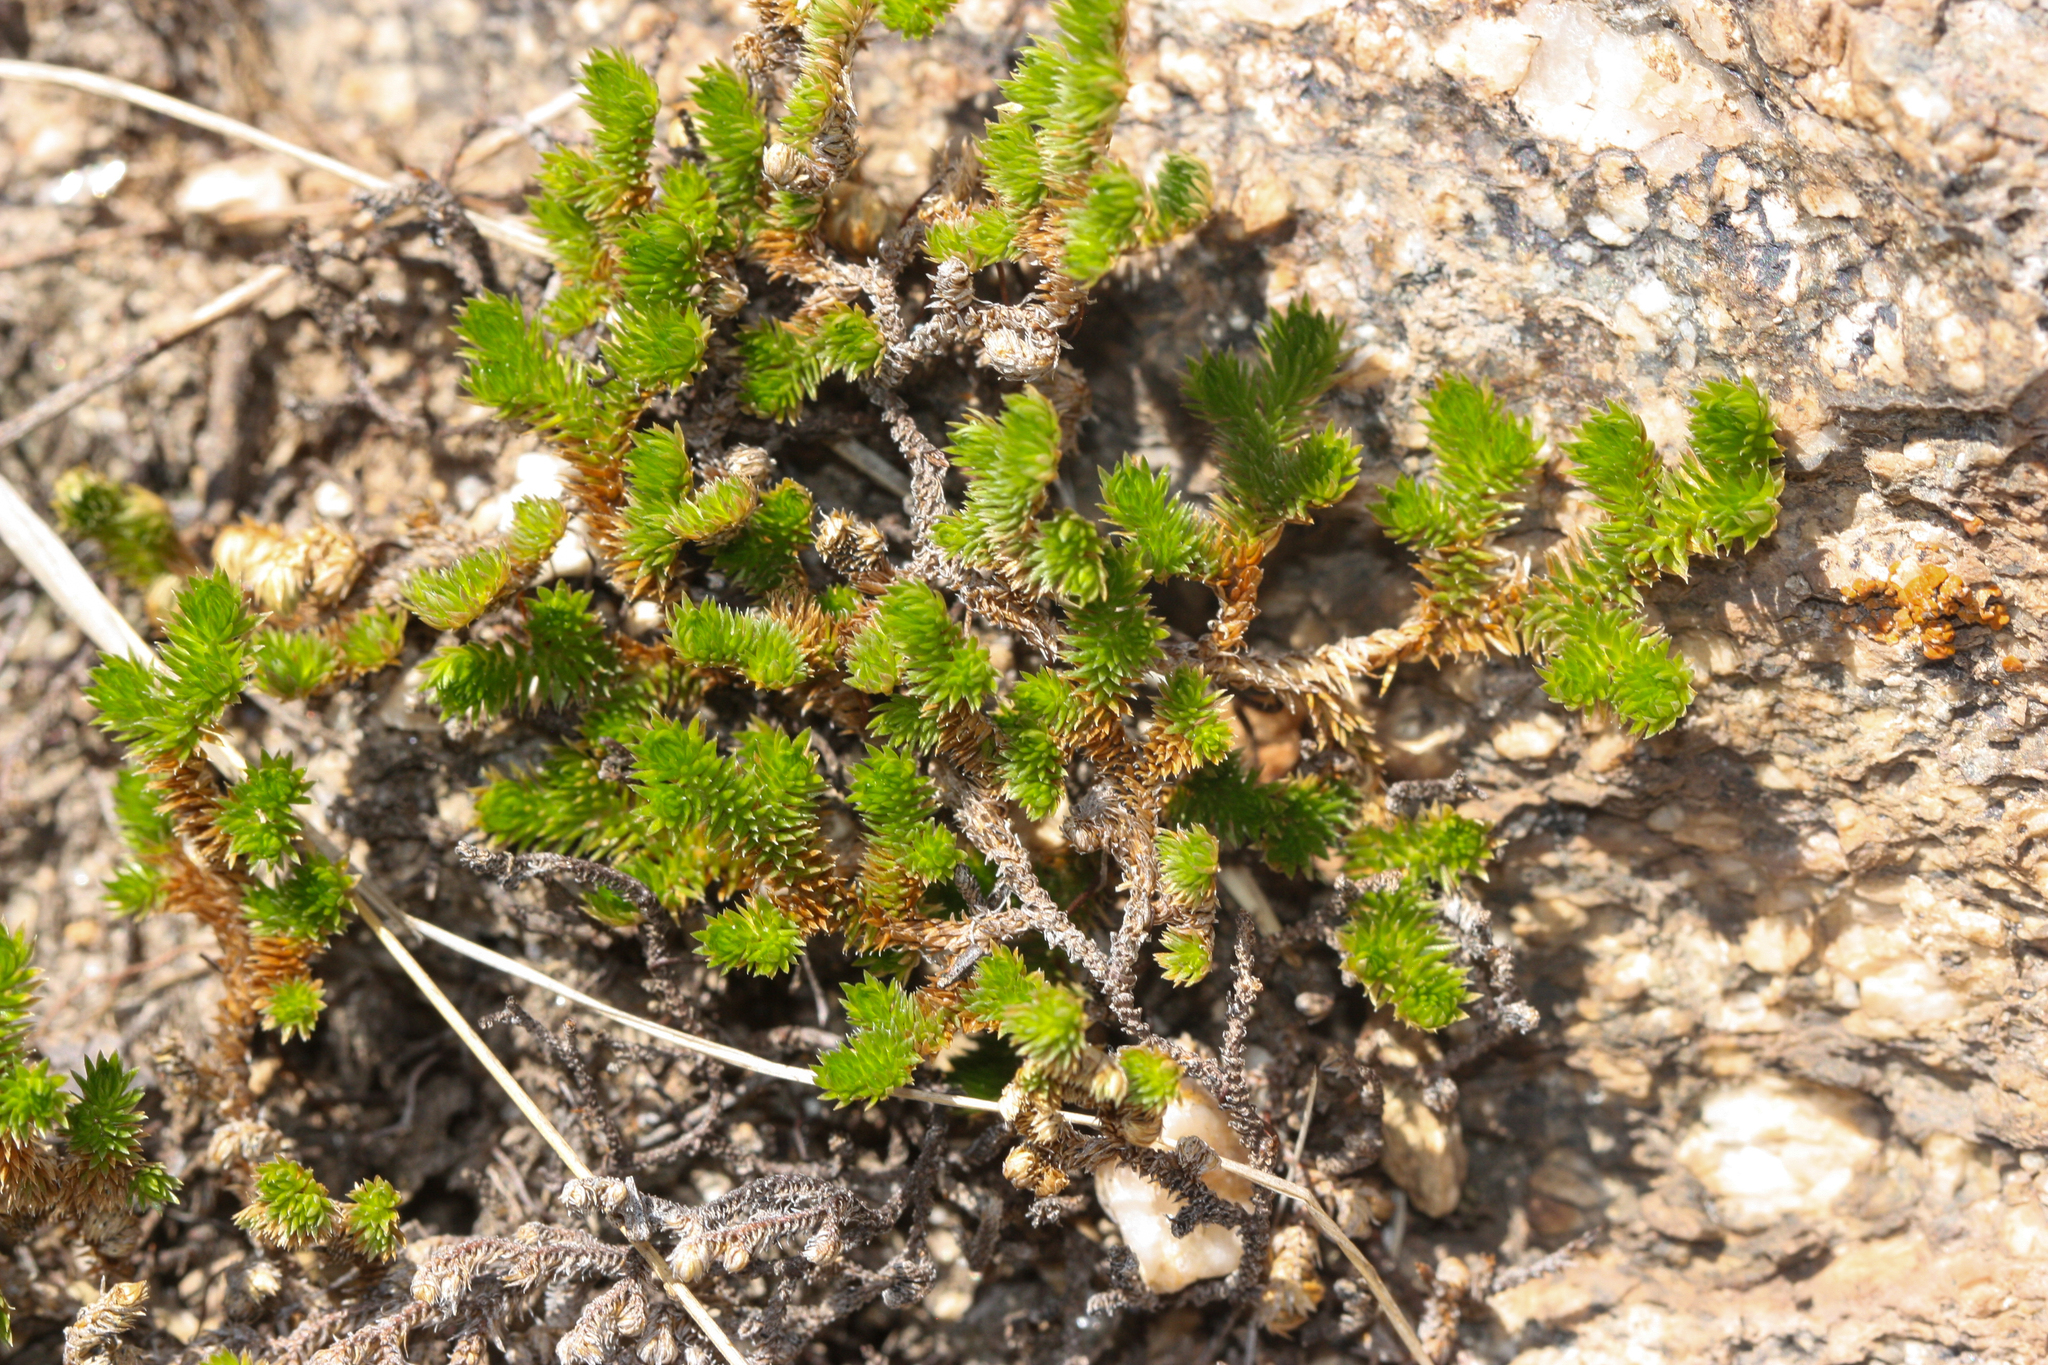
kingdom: Plantae
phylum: Tracheophyta
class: Lycopodiopsida
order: Selaginellales
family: Selaginellaceae
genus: Selaginella
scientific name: Selaginella arizonica
